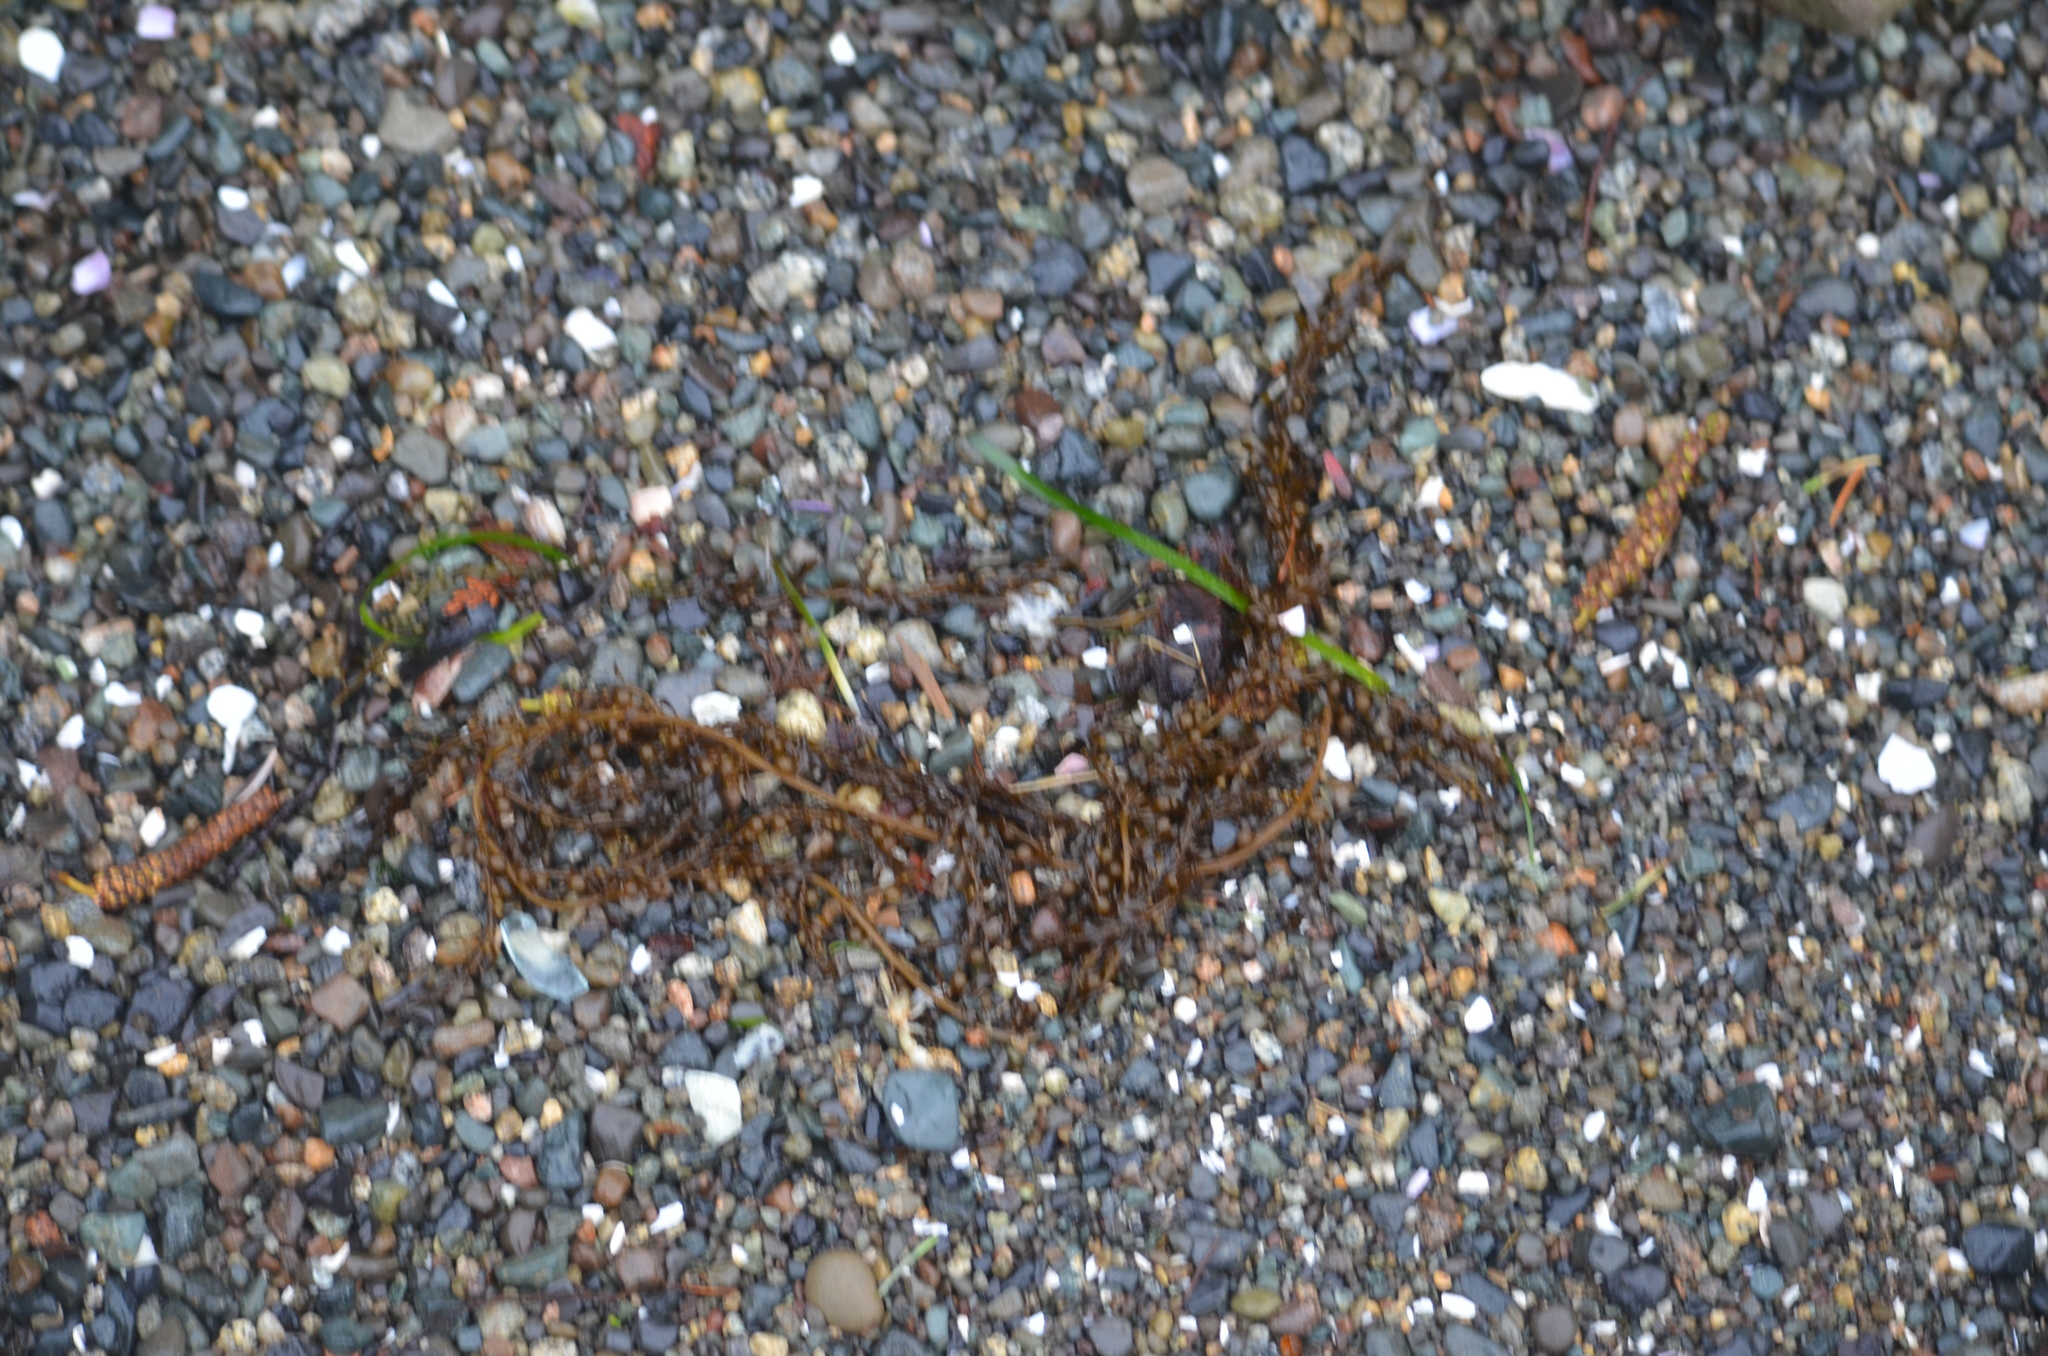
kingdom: Chromista
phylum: Ochrophyta
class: Phaeophyceae
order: Fucales
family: Sargassaceae
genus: Sargassum
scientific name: Sargassum muticum
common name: Japweed
